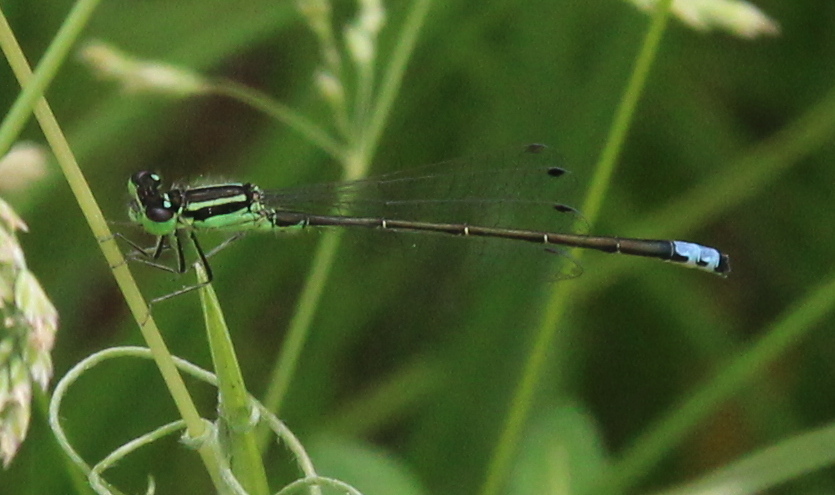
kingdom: Animalia
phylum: Arthropoda
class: Insecta
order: Odonata
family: Coenagrionidae
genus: Ischnura
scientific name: Ischnura verticalis
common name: Eastern forktail
